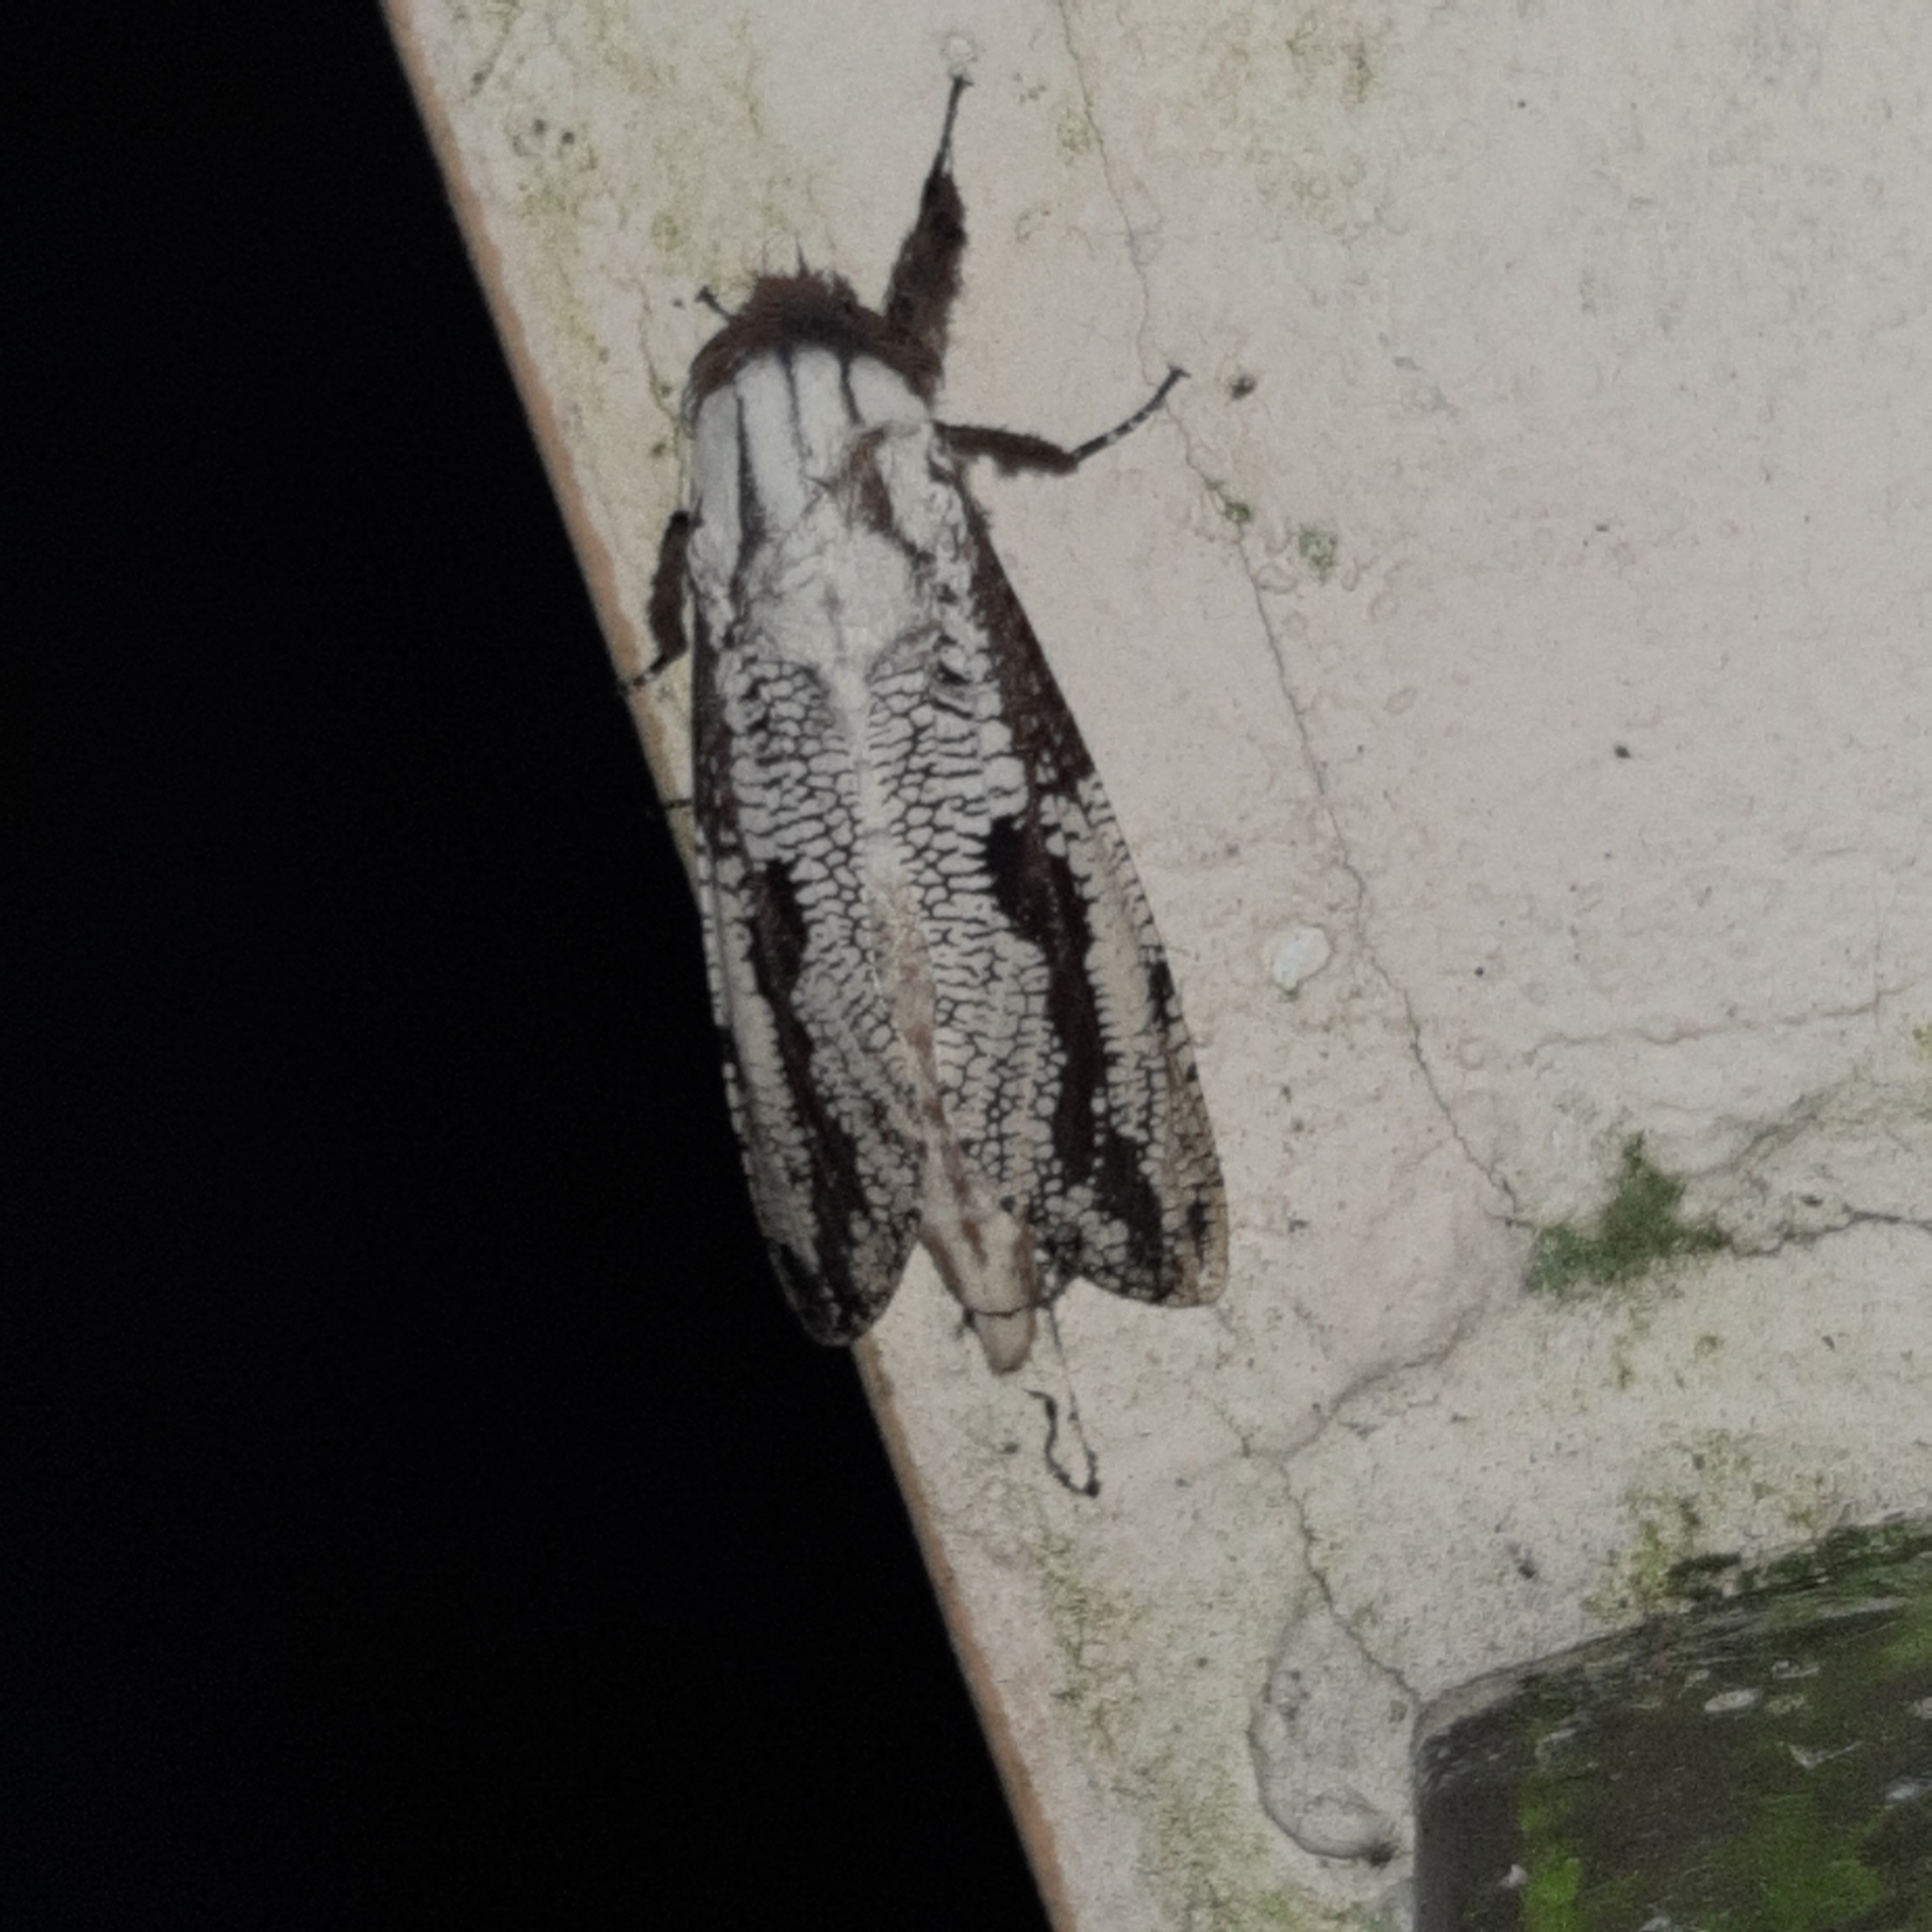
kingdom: Animalia
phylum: Arthropoda
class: Insecta
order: Lepidoptera
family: Cossidae
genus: Morpheis
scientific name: Morpheis pyracmon
